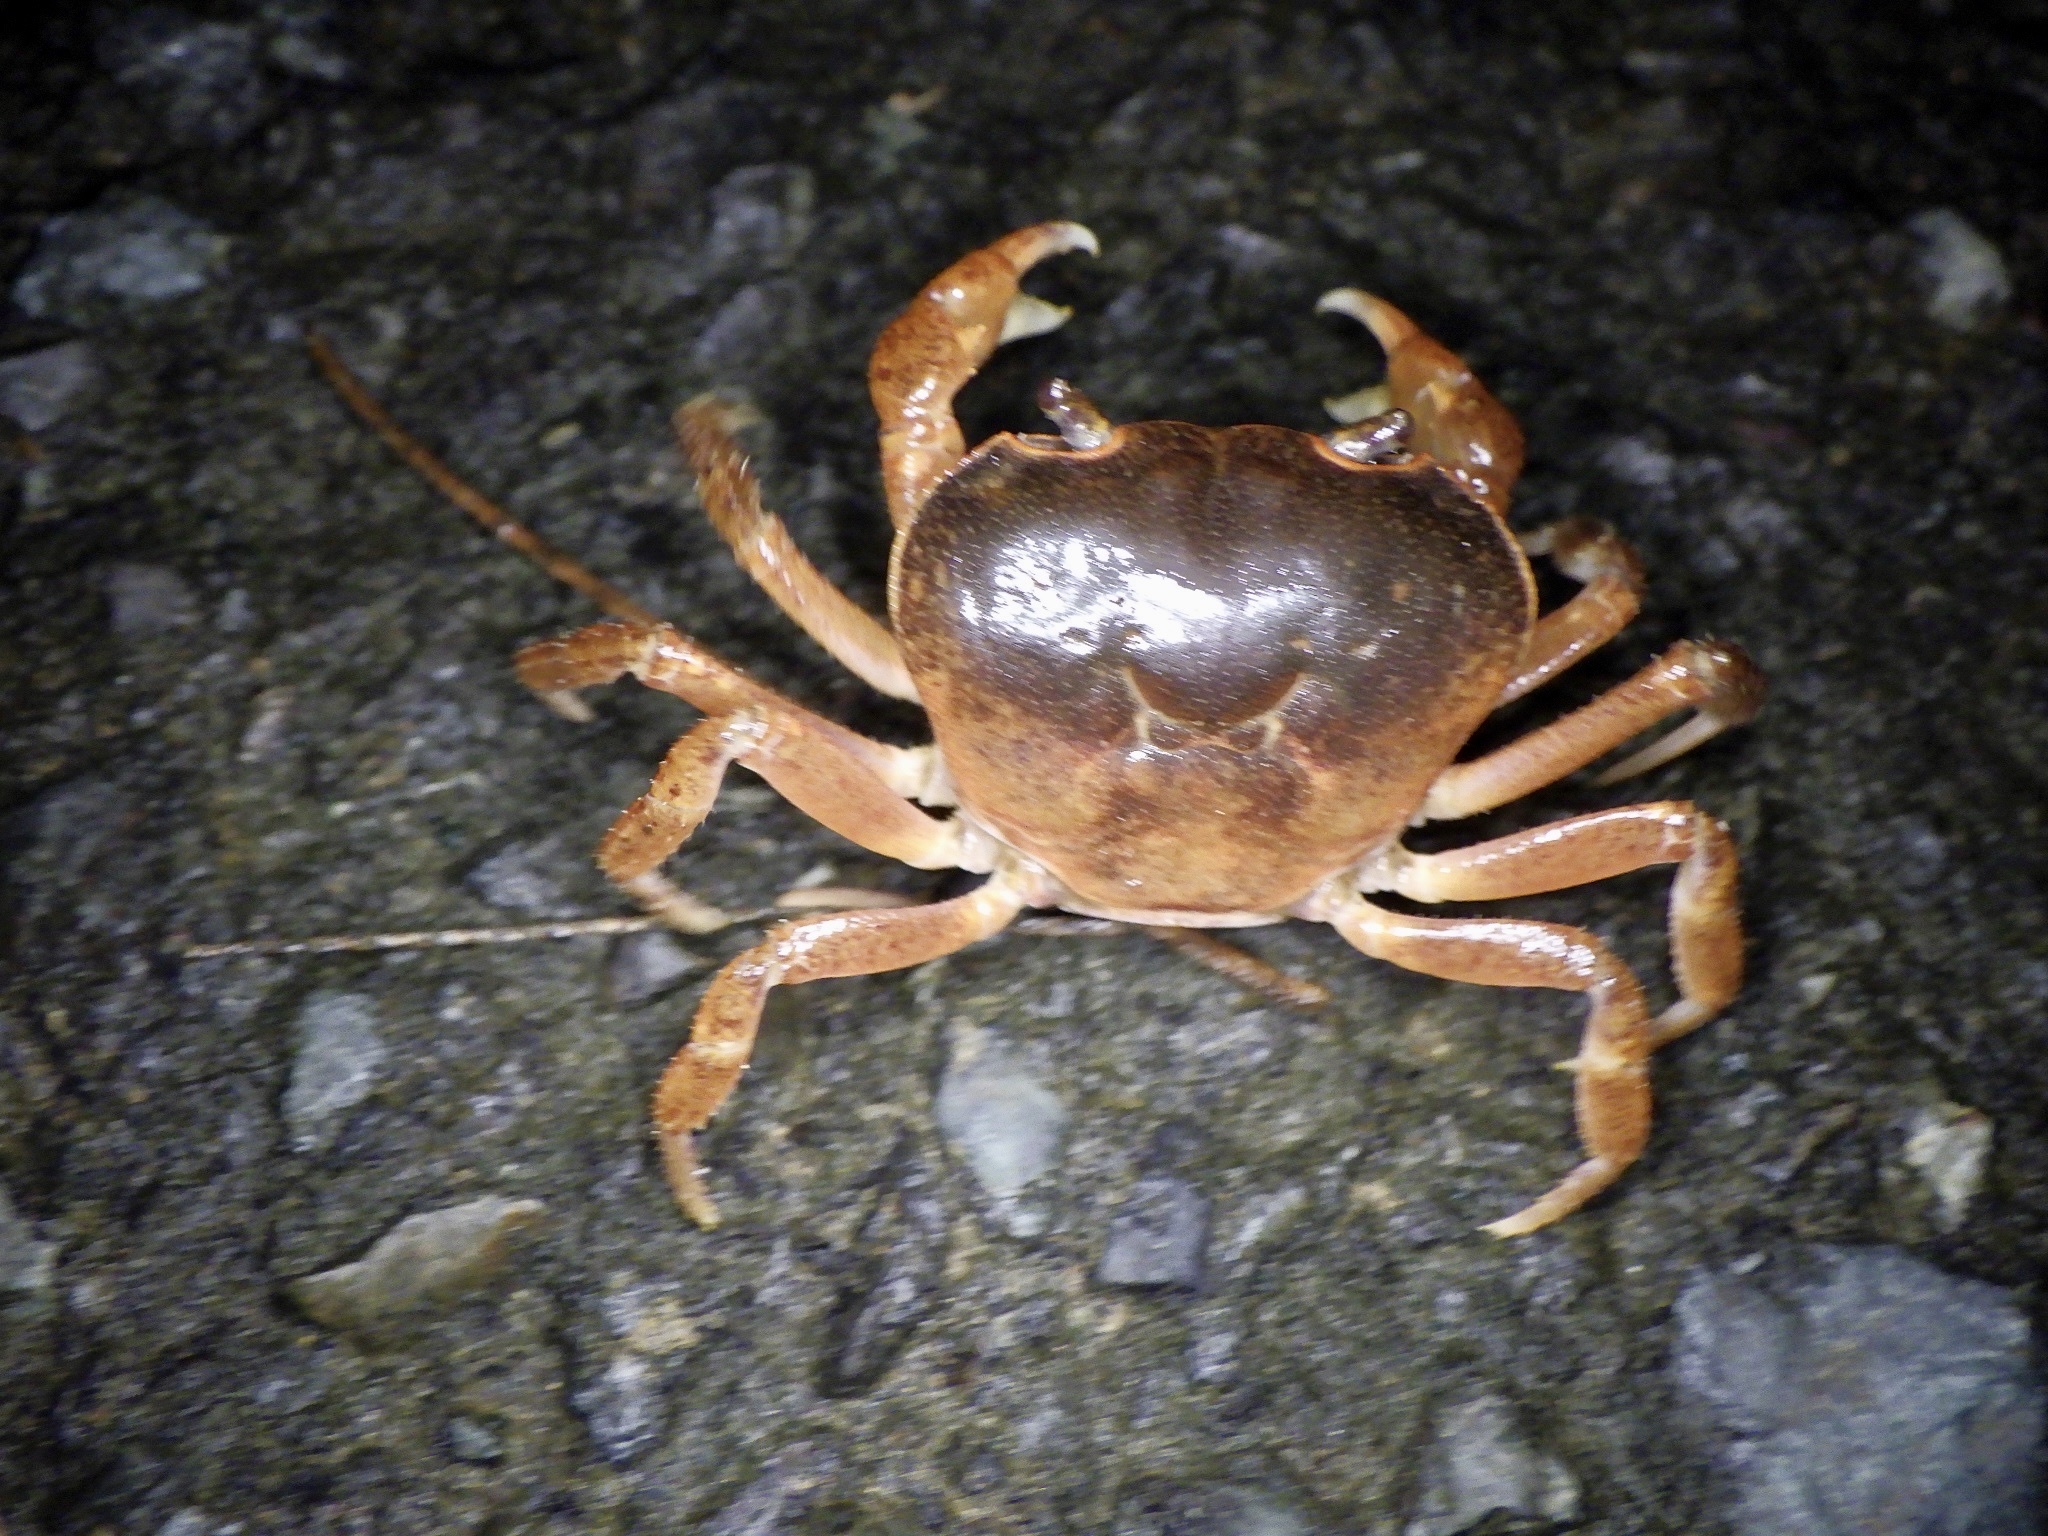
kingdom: Animalia
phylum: Arthropoda
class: Malacostraca
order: Decapoda
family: Potamidae
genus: Geothelphusa
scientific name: Geothelphusa dehaani
